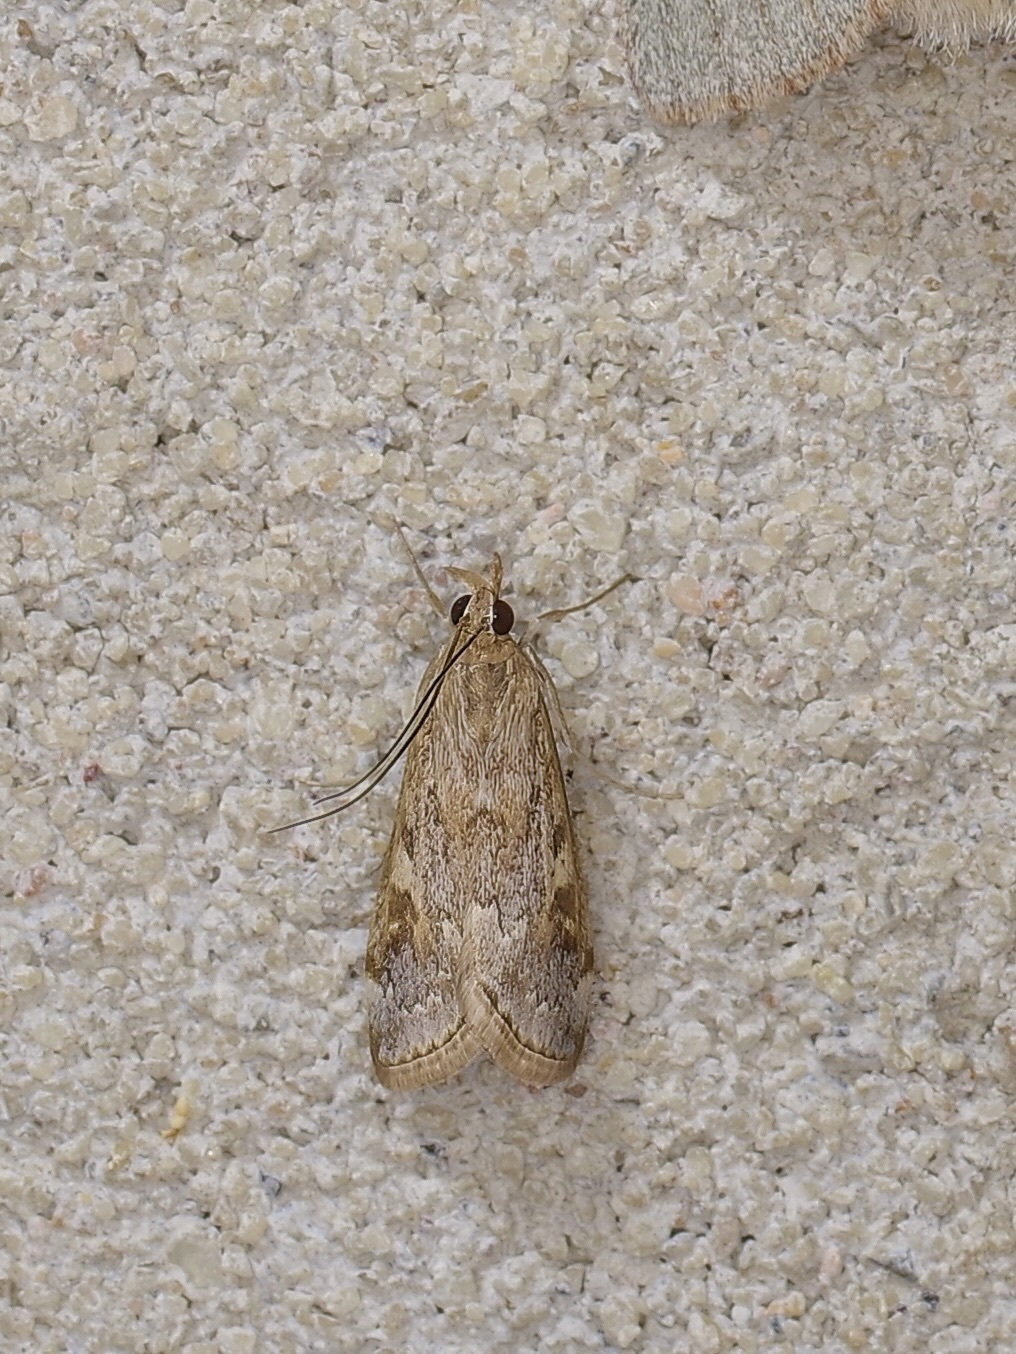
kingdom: Animalia
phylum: Arthropoda
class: Insecta
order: Lepidoptera
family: Crambidae
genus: Loxostege
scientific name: Loxostege allectalis
